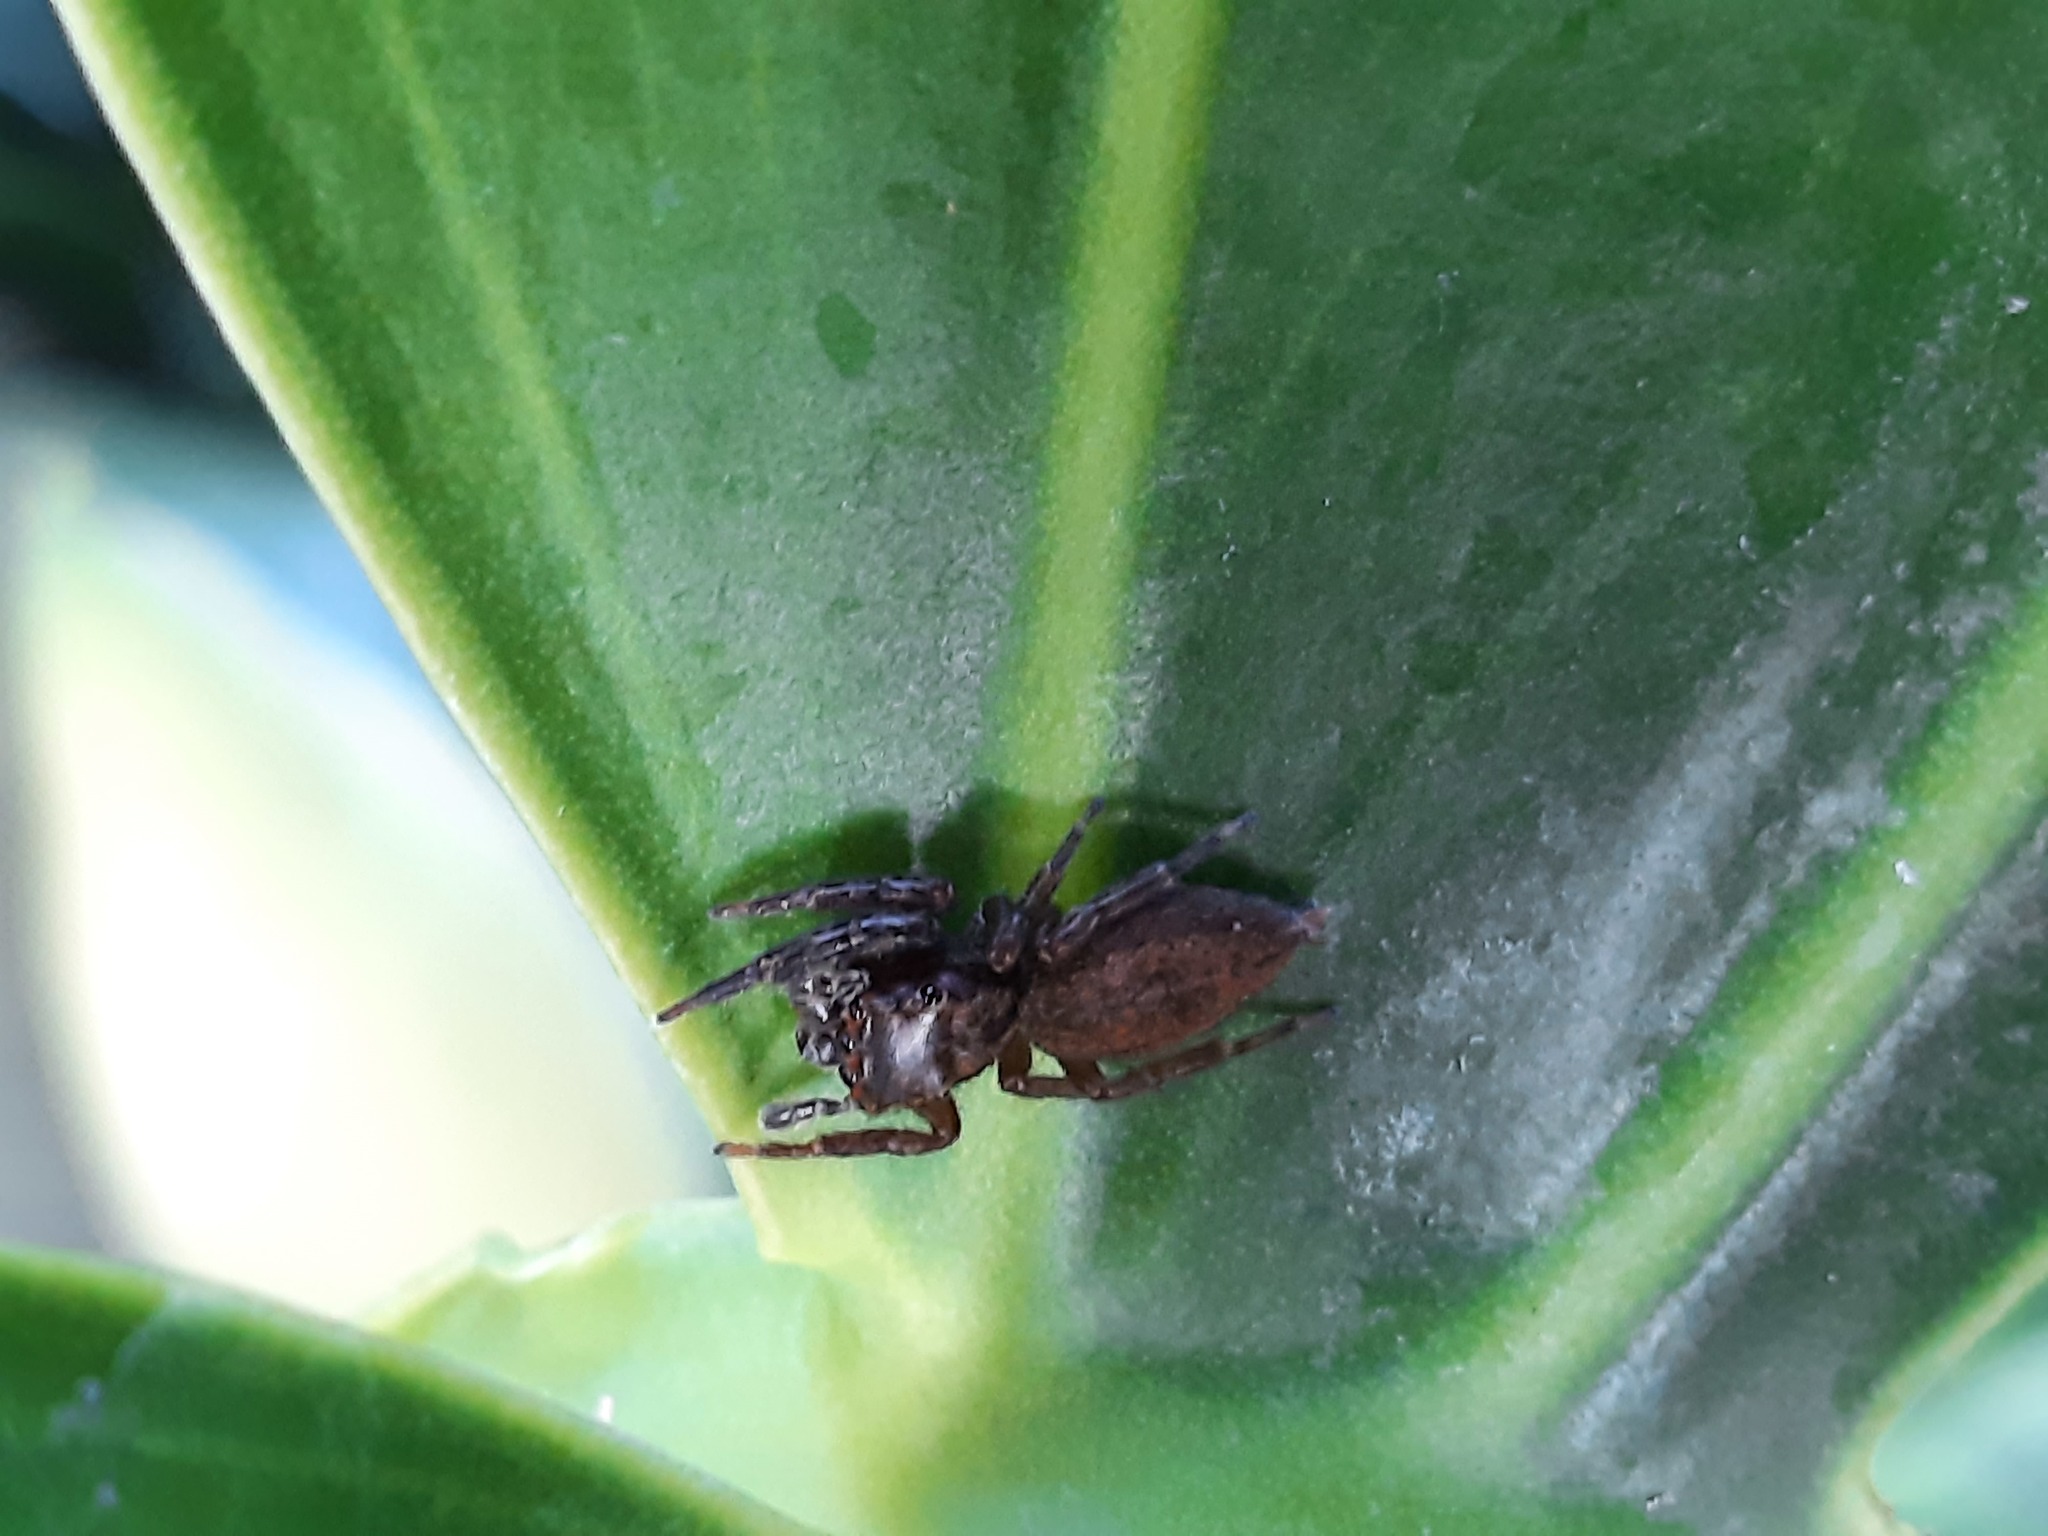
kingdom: Animalia
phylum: Arthropoda
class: Arachnida
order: Araneae
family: Salticidae
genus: Trite
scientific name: Trite auricoma
